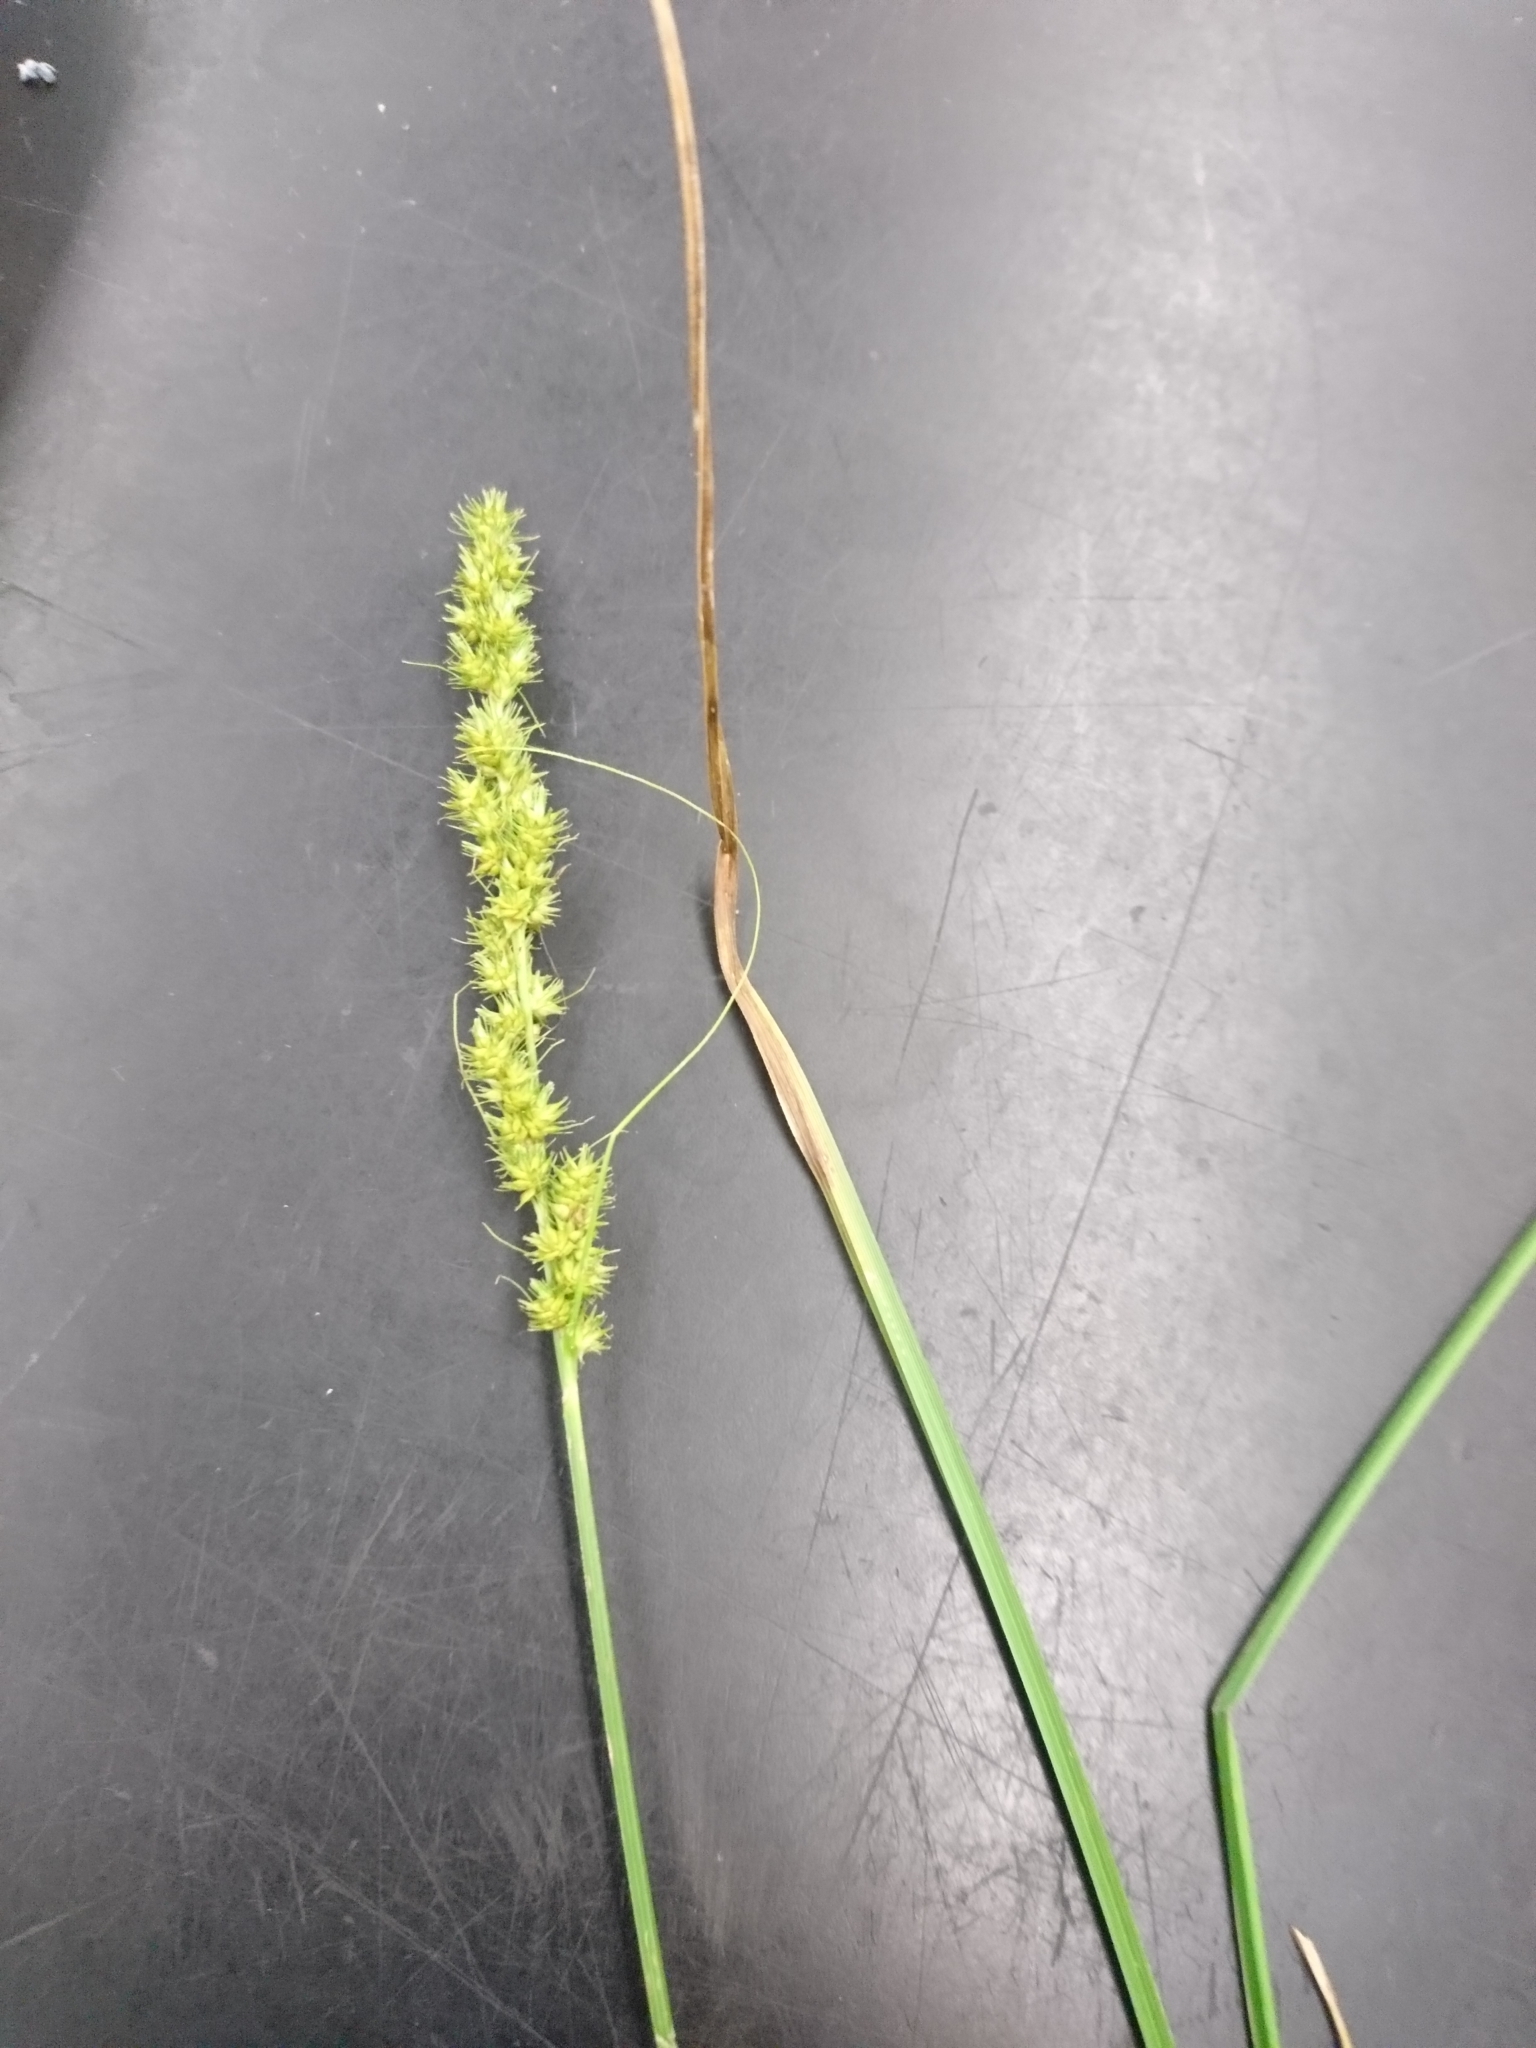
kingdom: Plantae
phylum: Tracheophyta
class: Liliopsida
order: Poales
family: Cyperaceae
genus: Carex
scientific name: Carex vulpinoidea
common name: American fox-sedge
